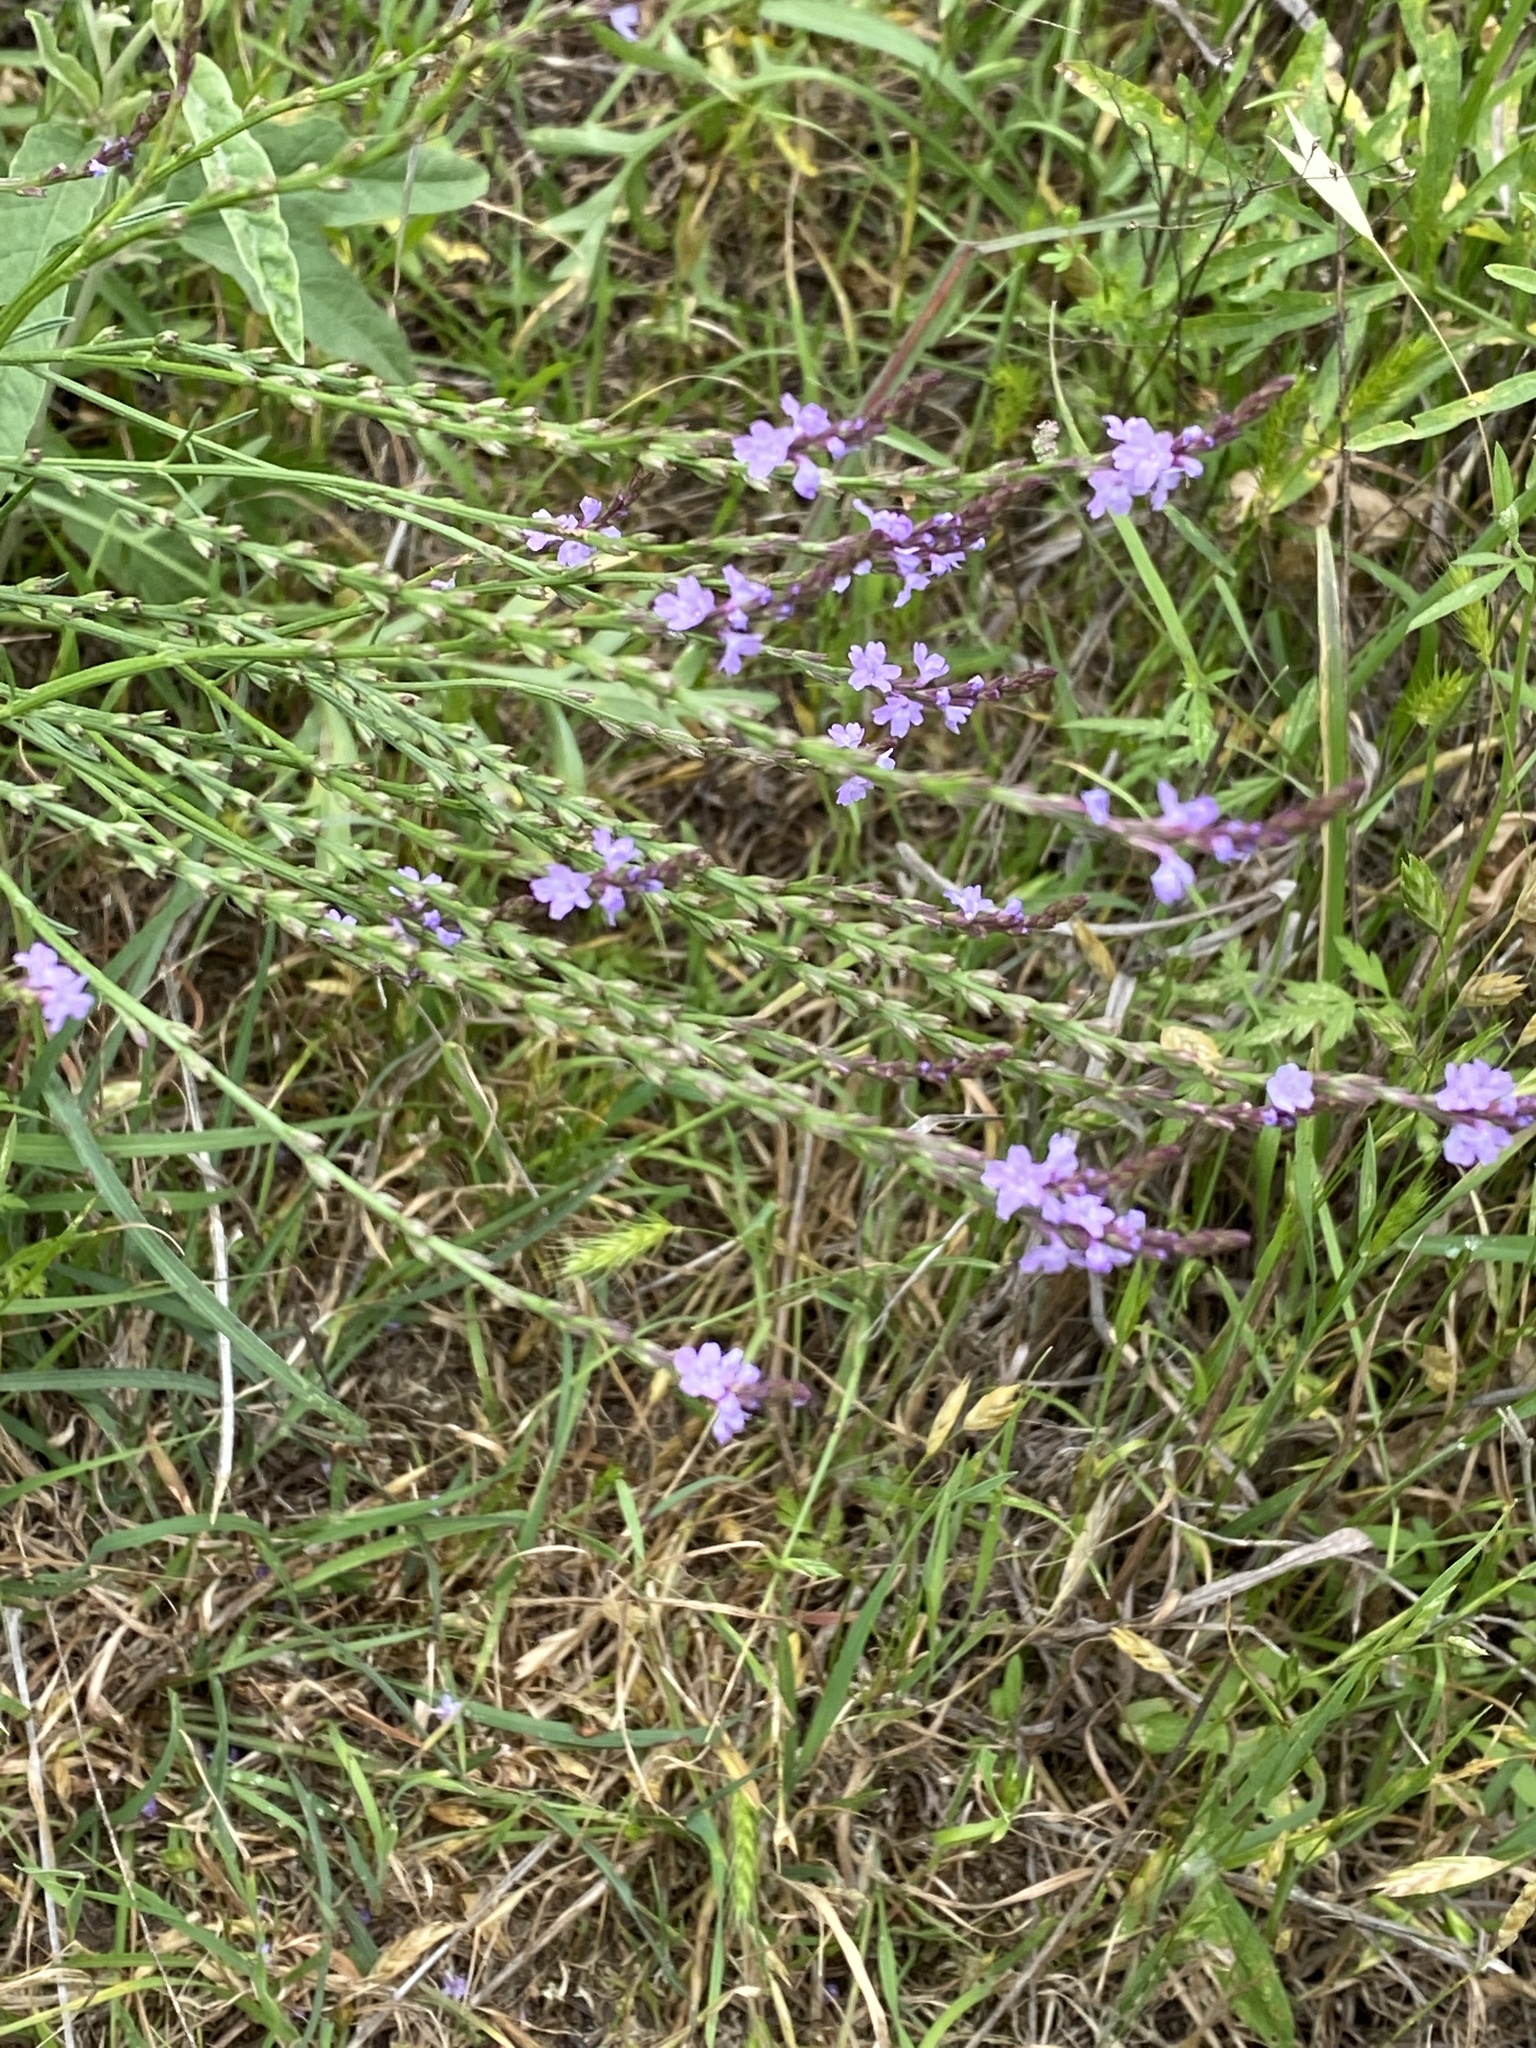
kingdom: Plantae
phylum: Tracheophyta
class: Magnoliopsida
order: Lamiales
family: Verbenaceae
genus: Verbena
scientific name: Verbena halei
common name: Texas vervain
